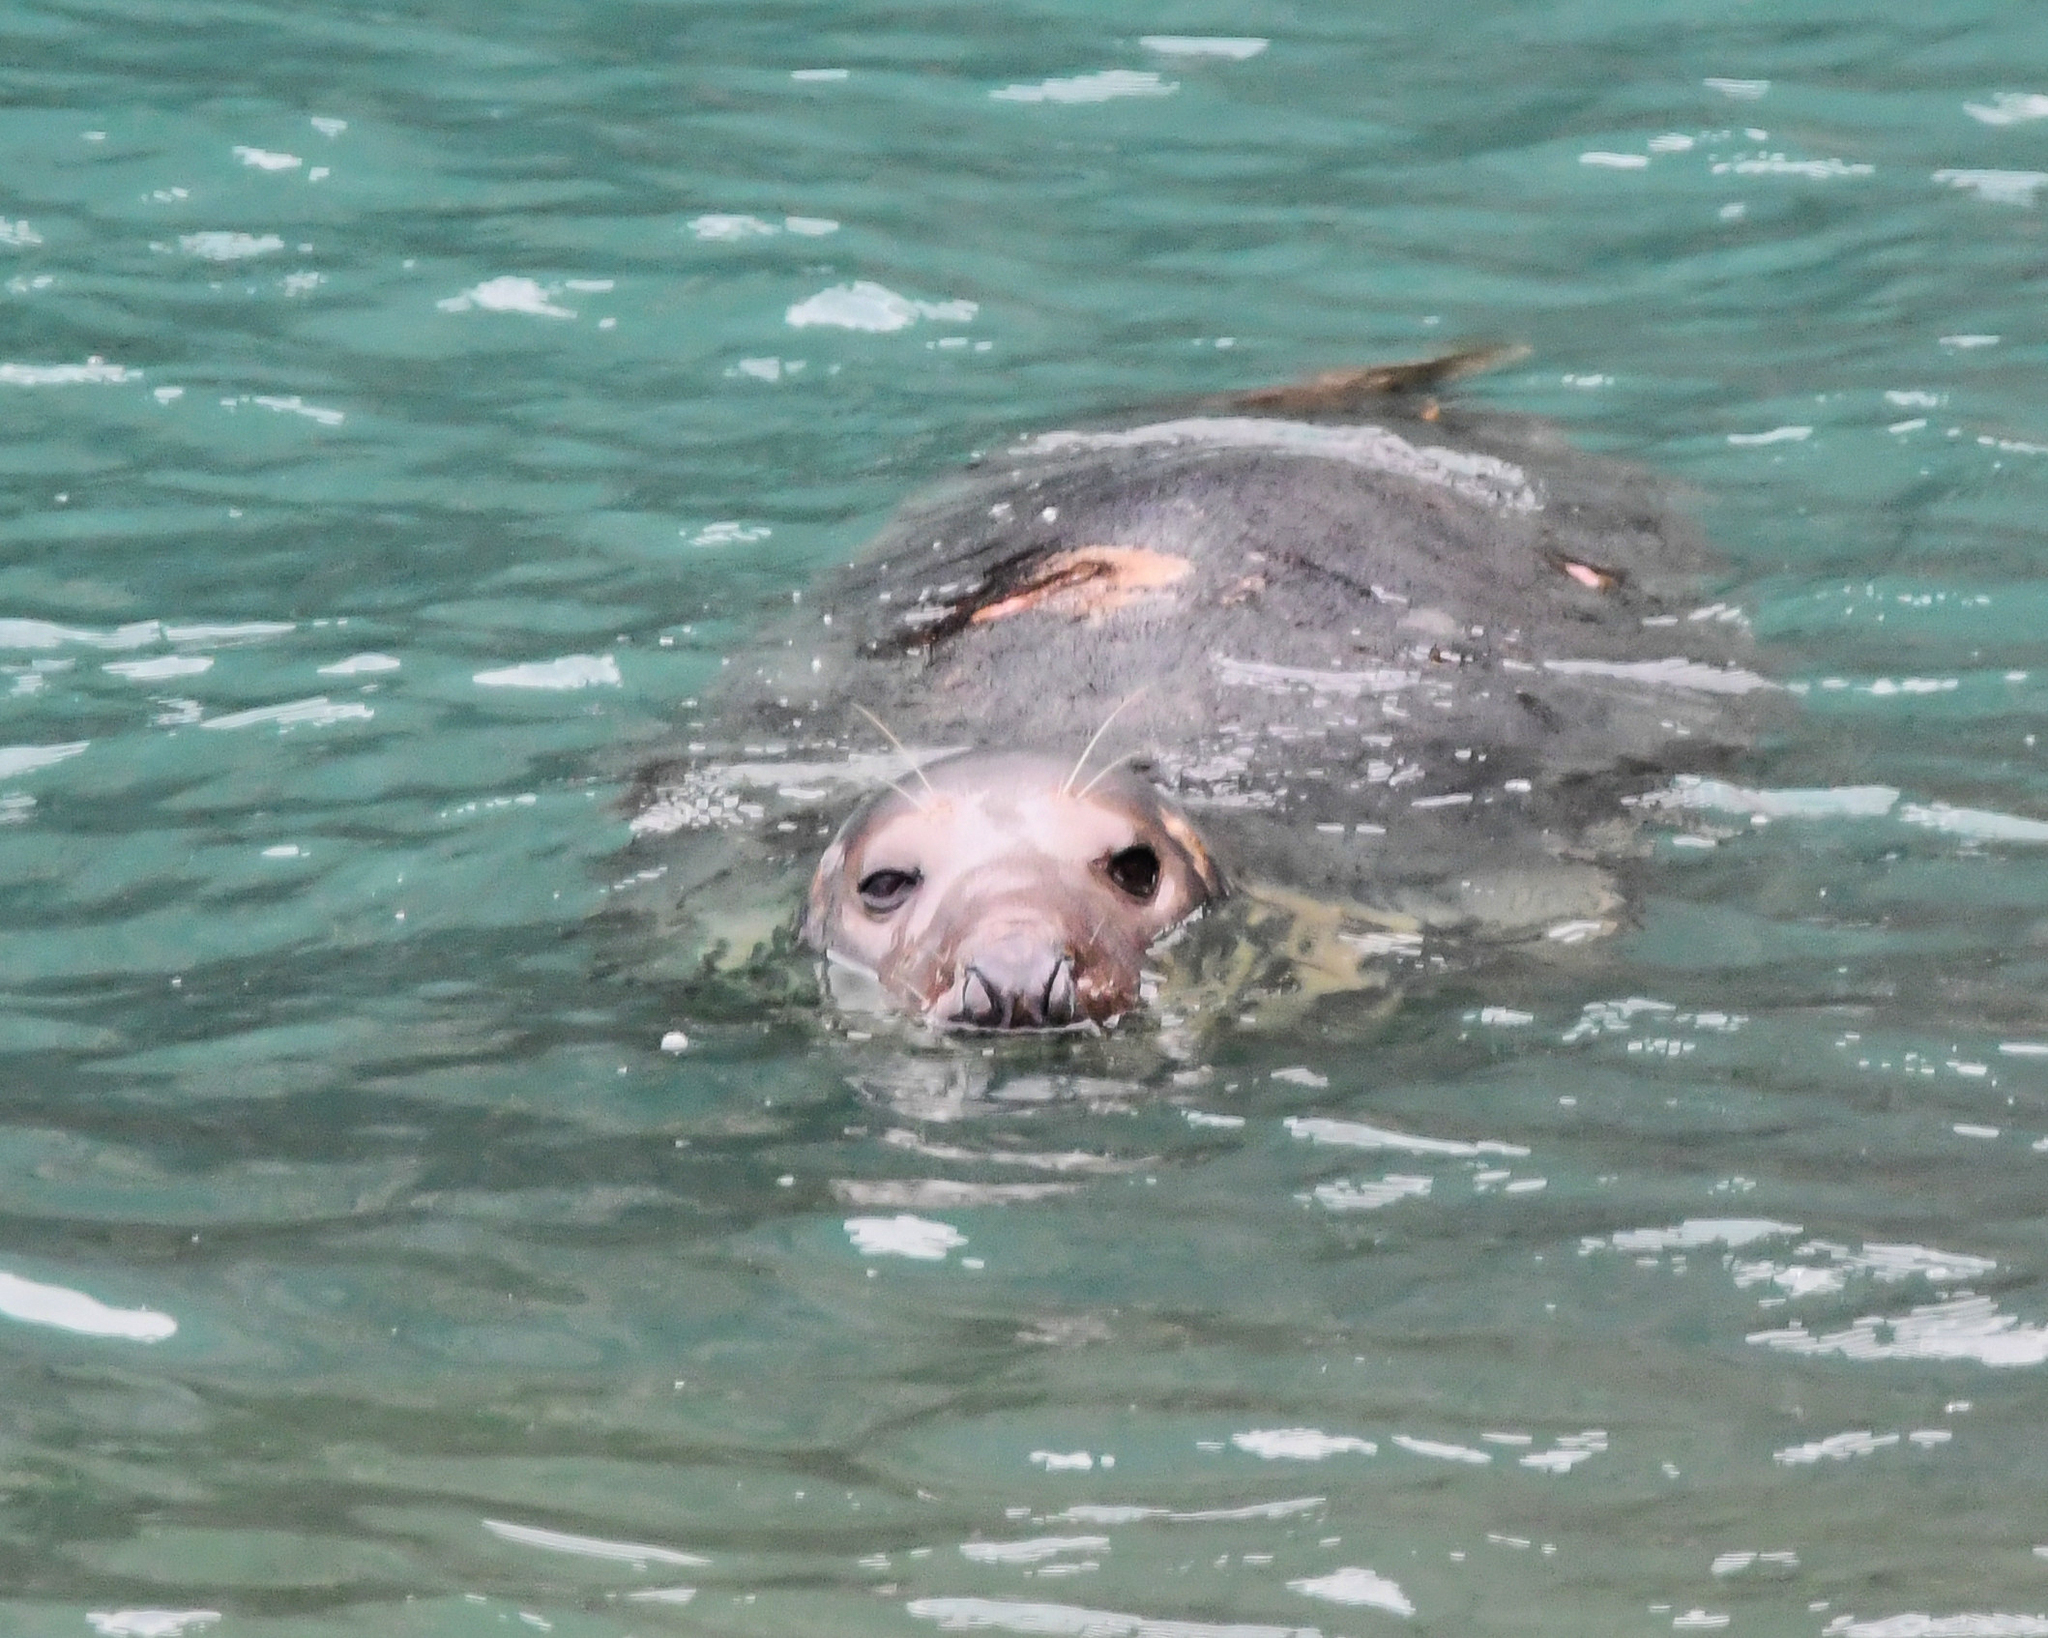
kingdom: Animalia
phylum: Chordata
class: Mammalia
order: Carnivora
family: Phocidae
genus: Halichoerus
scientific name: Halichoerus grypus
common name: Grey seal
